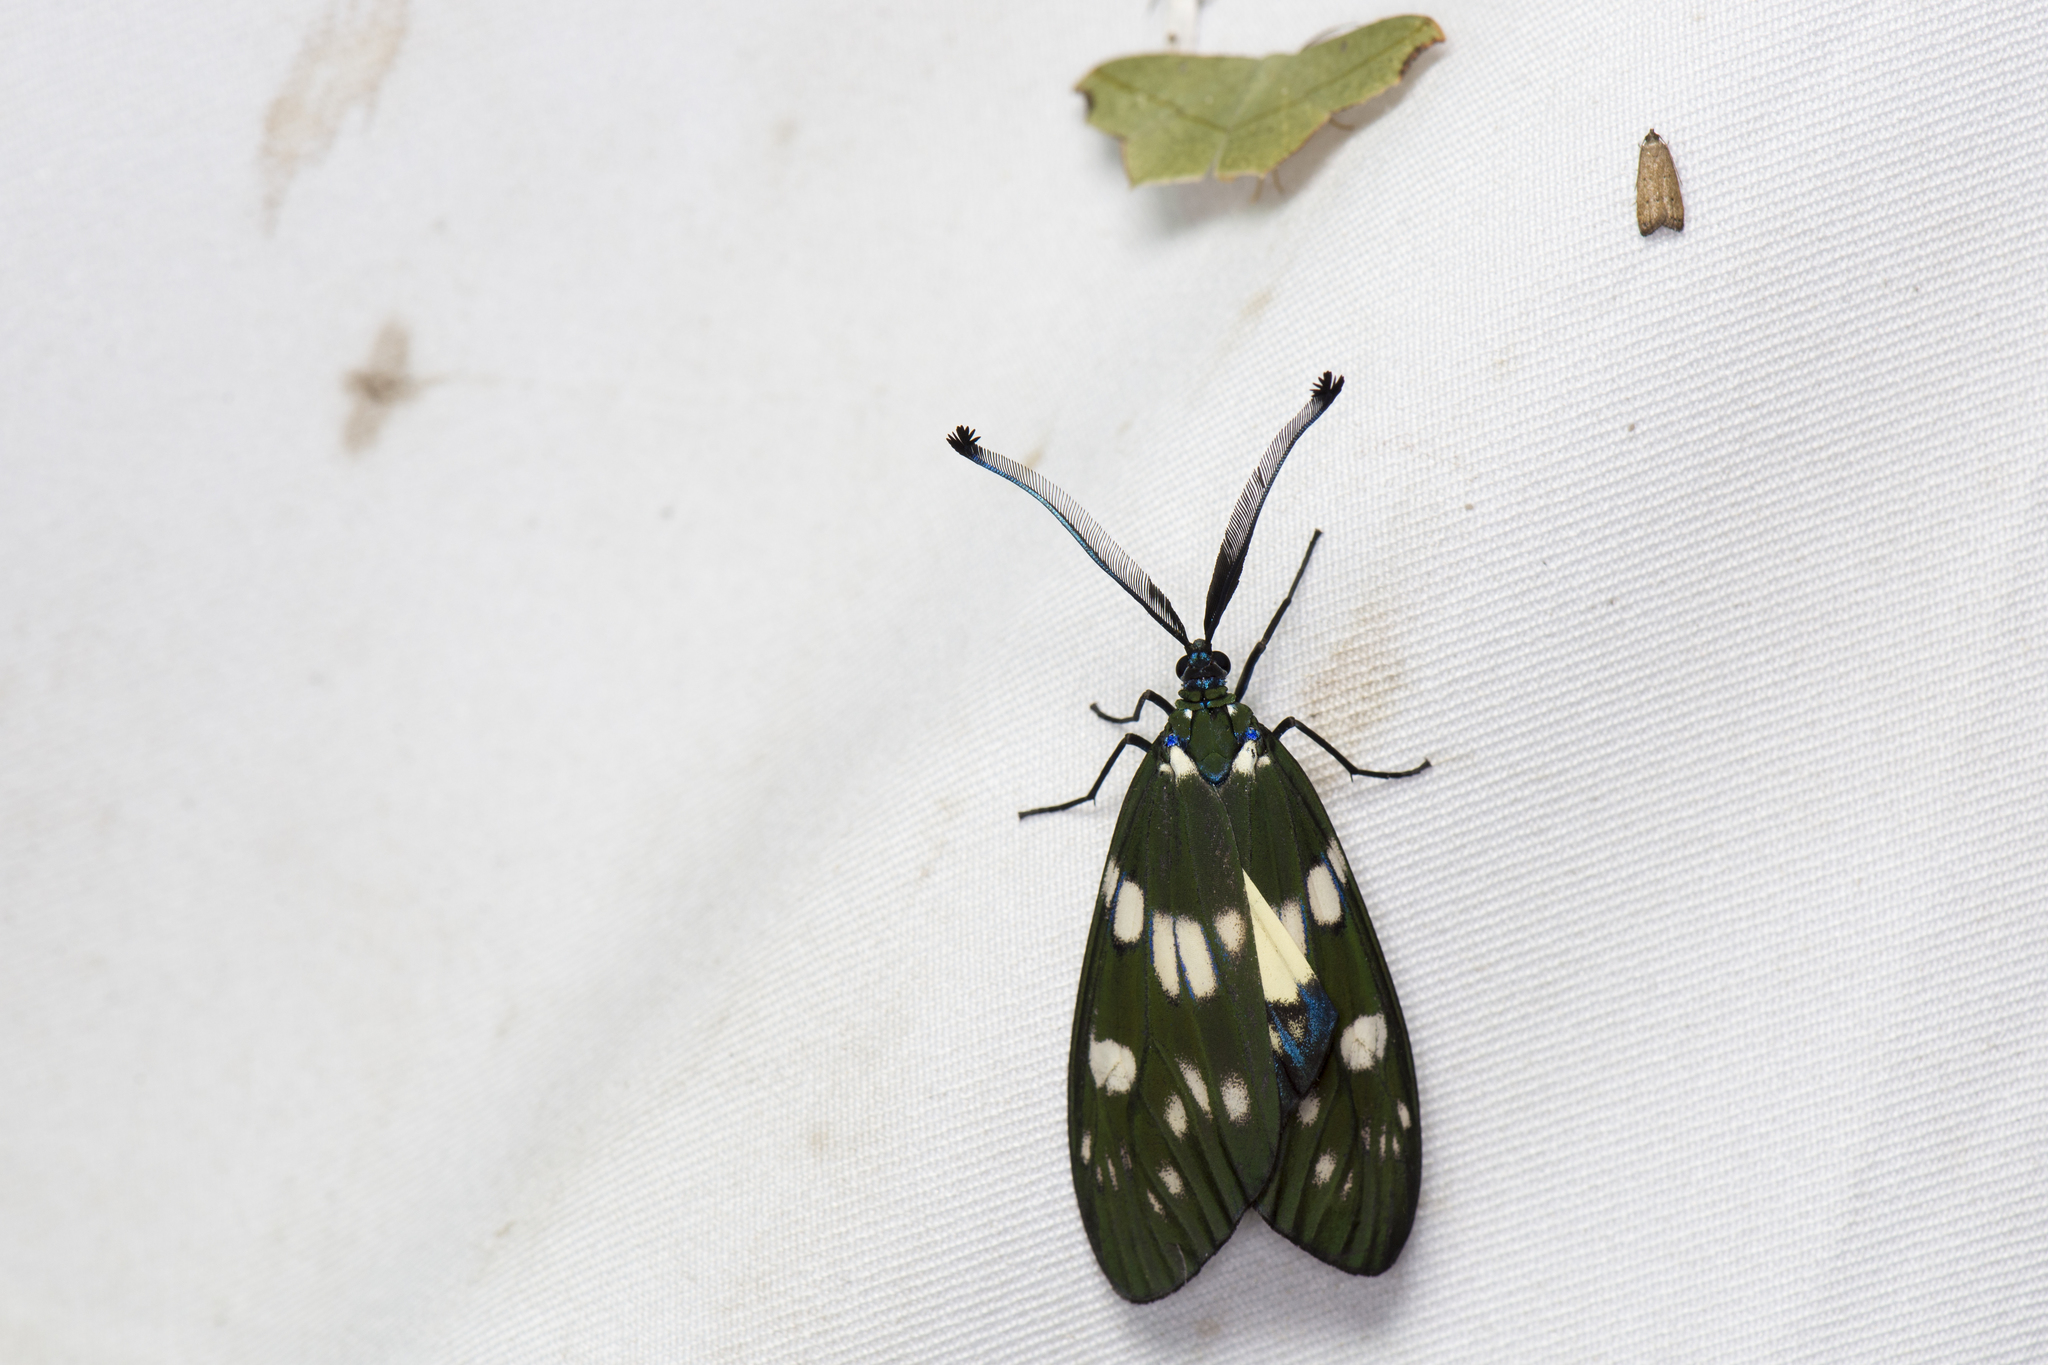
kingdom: Animalia
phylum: Arthropoda
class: Insecta
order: Lepidoptera
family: Zygaenidae
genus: Eterusia
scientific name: Eterusia aedea
